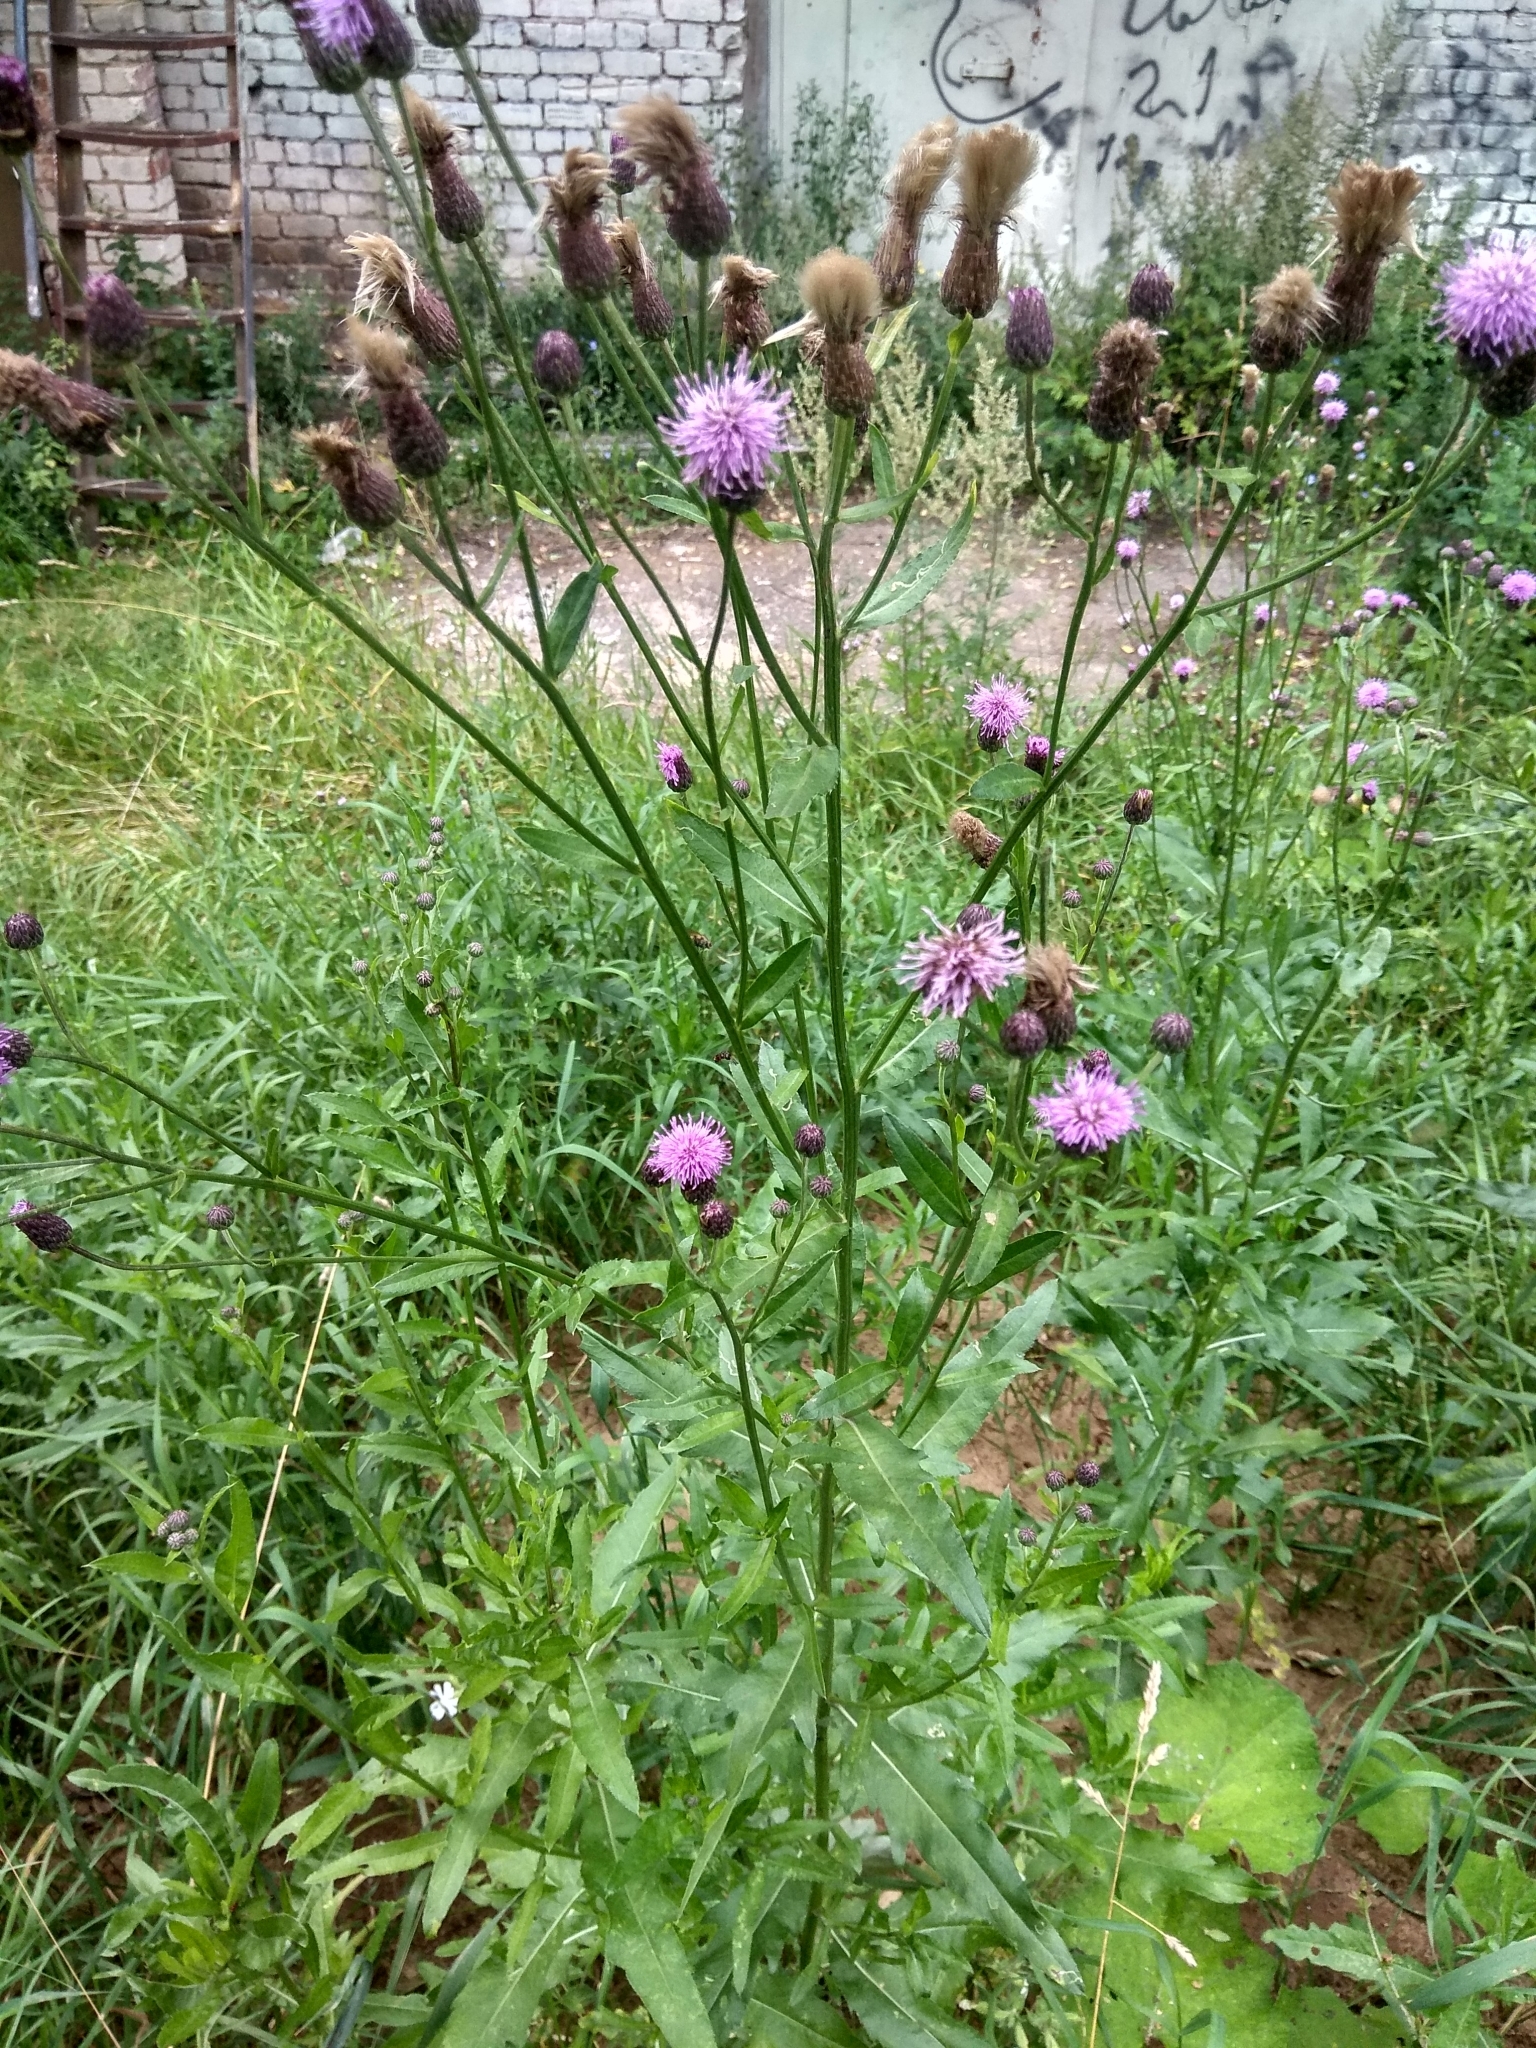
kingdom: Plantae
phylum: Tracheophyta
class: Magnoliopsida
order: Asterales
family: Asteraceae
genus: Cirsium
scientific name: Cirsium arvense
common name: Creeping thistle
